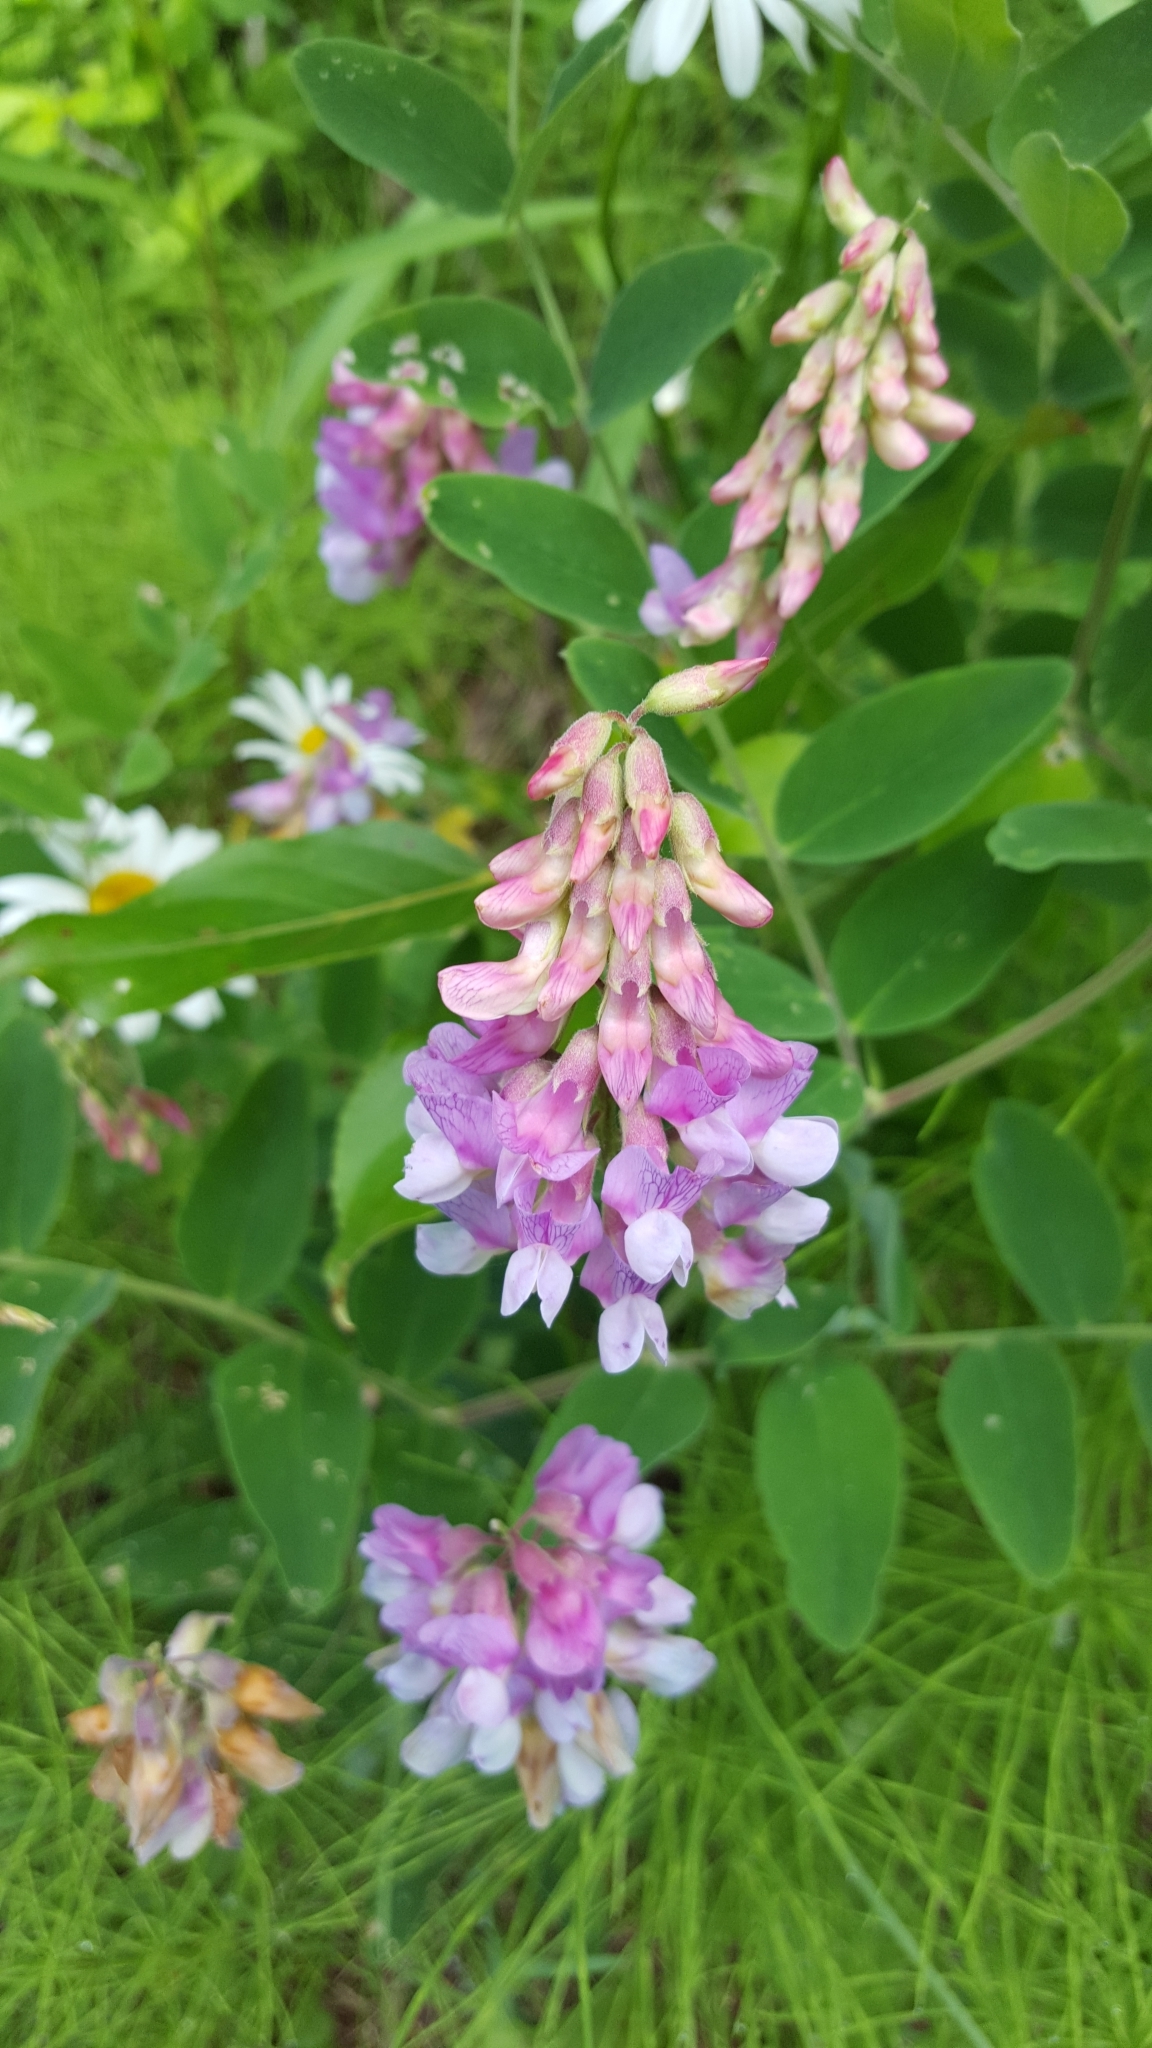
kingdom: Plantae
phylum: Tracheophyta
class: Magnoliopsida
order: Fabales
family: Fabaceae
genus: Lathyrus
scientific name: Lathyrus venosus
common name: Forest-pea
